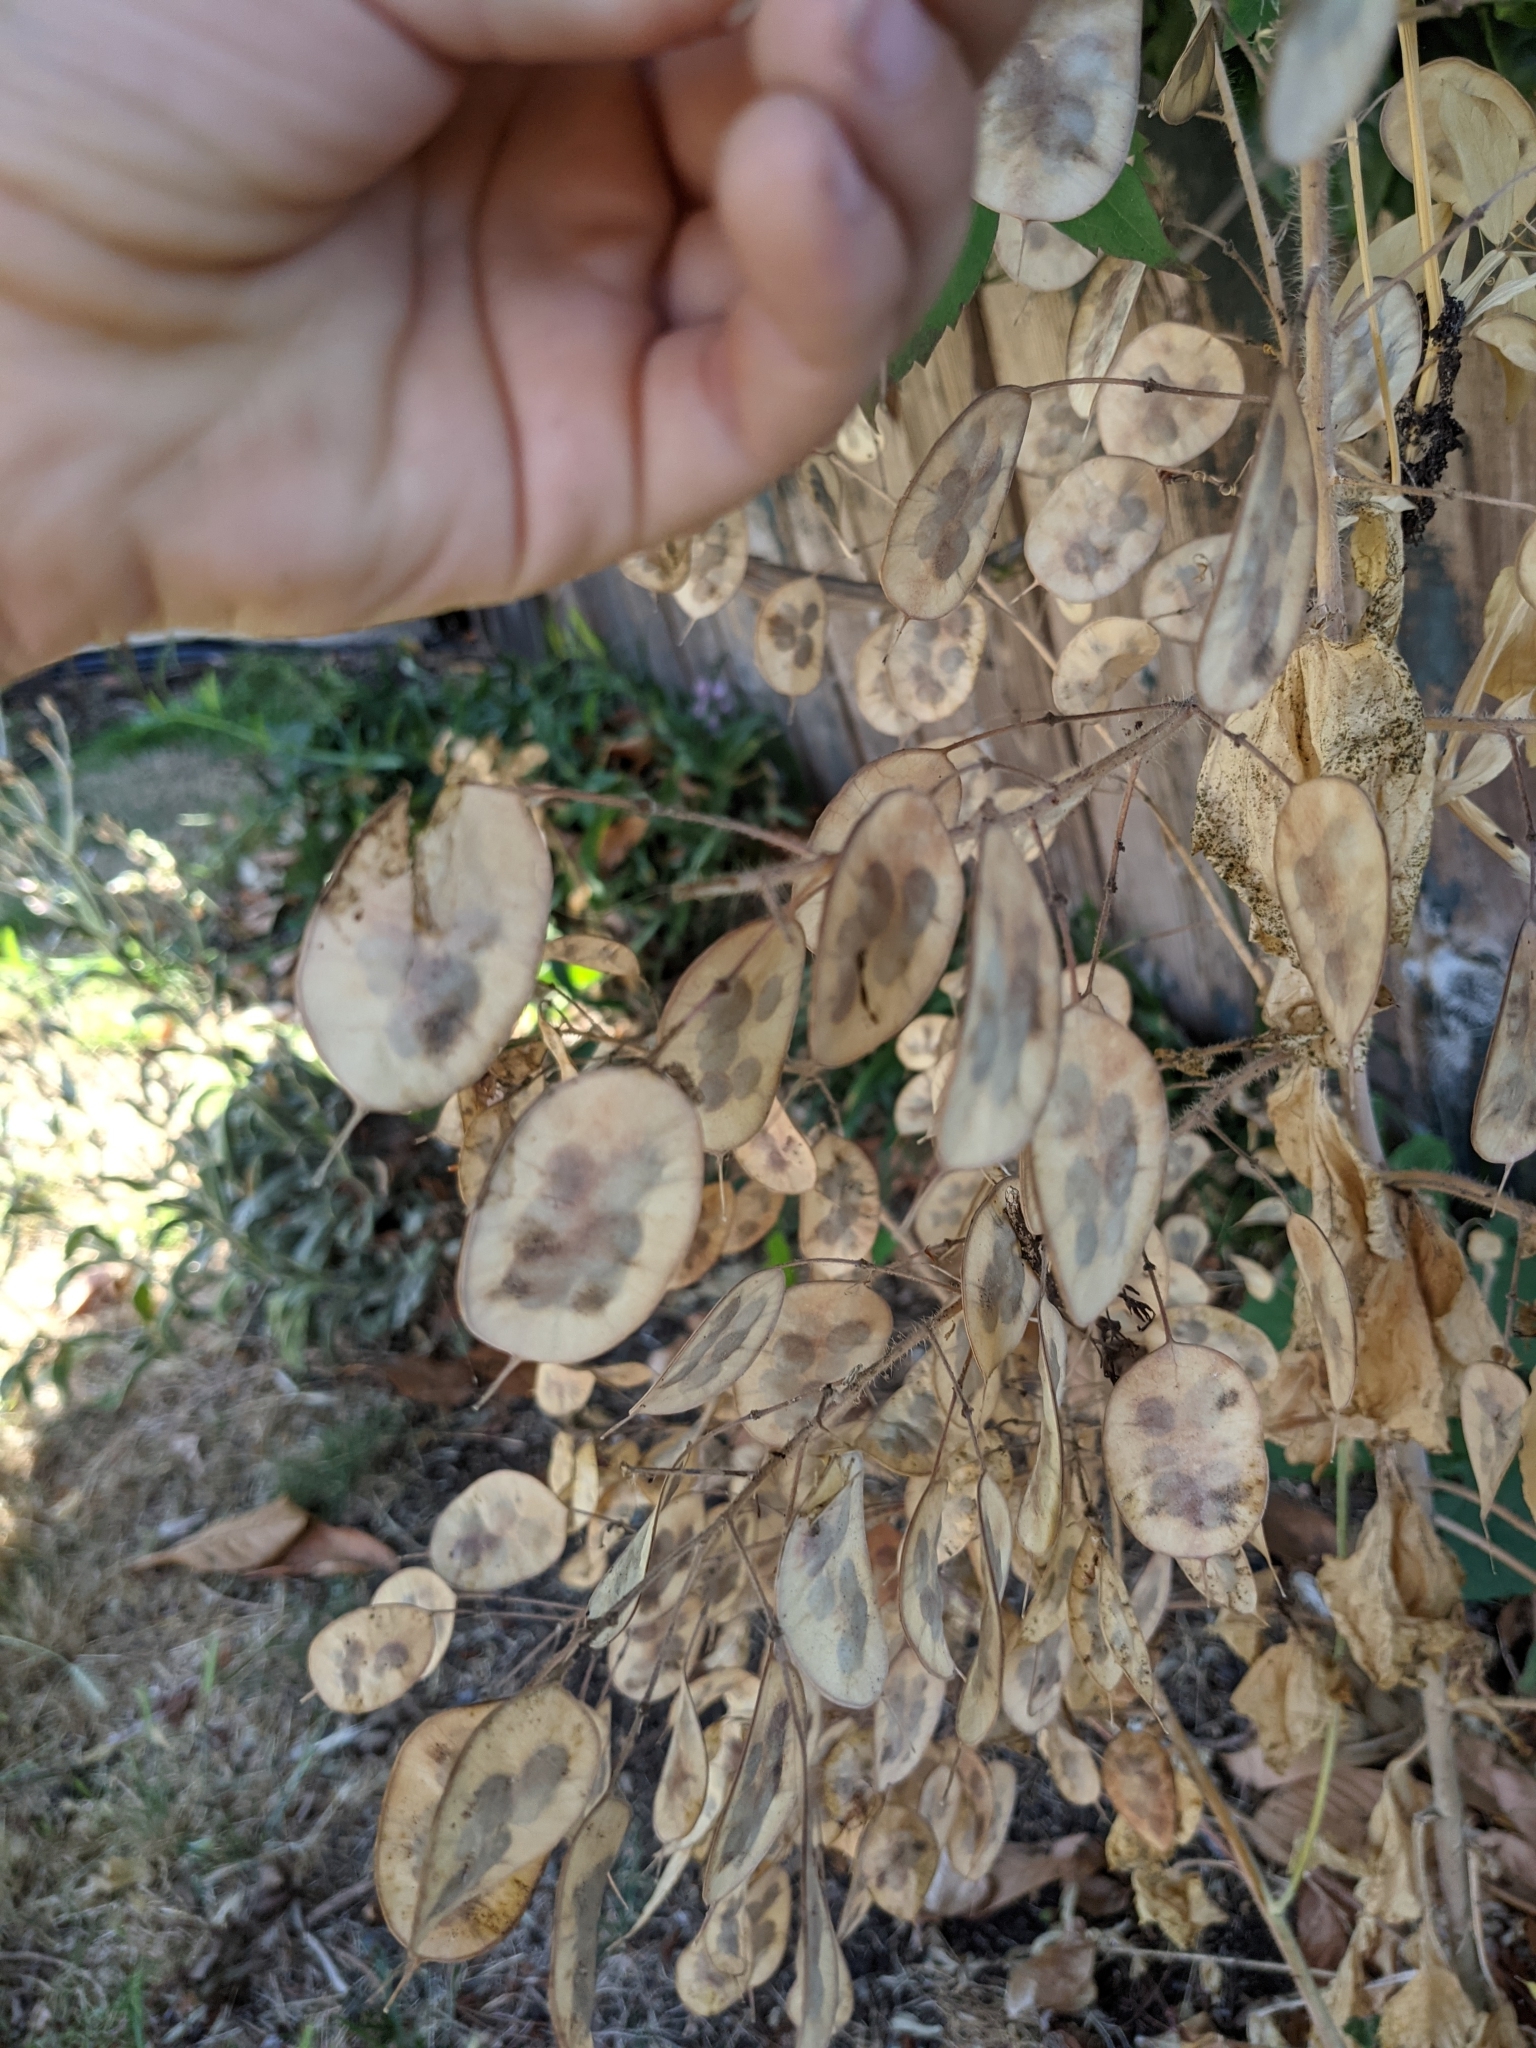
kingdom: Plantae
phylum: Tracheophyta
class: Magnoliopsida
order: Brassicales
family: Brassicaceae
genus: Lunaria
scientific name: Lunaria annua
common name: Honesty
